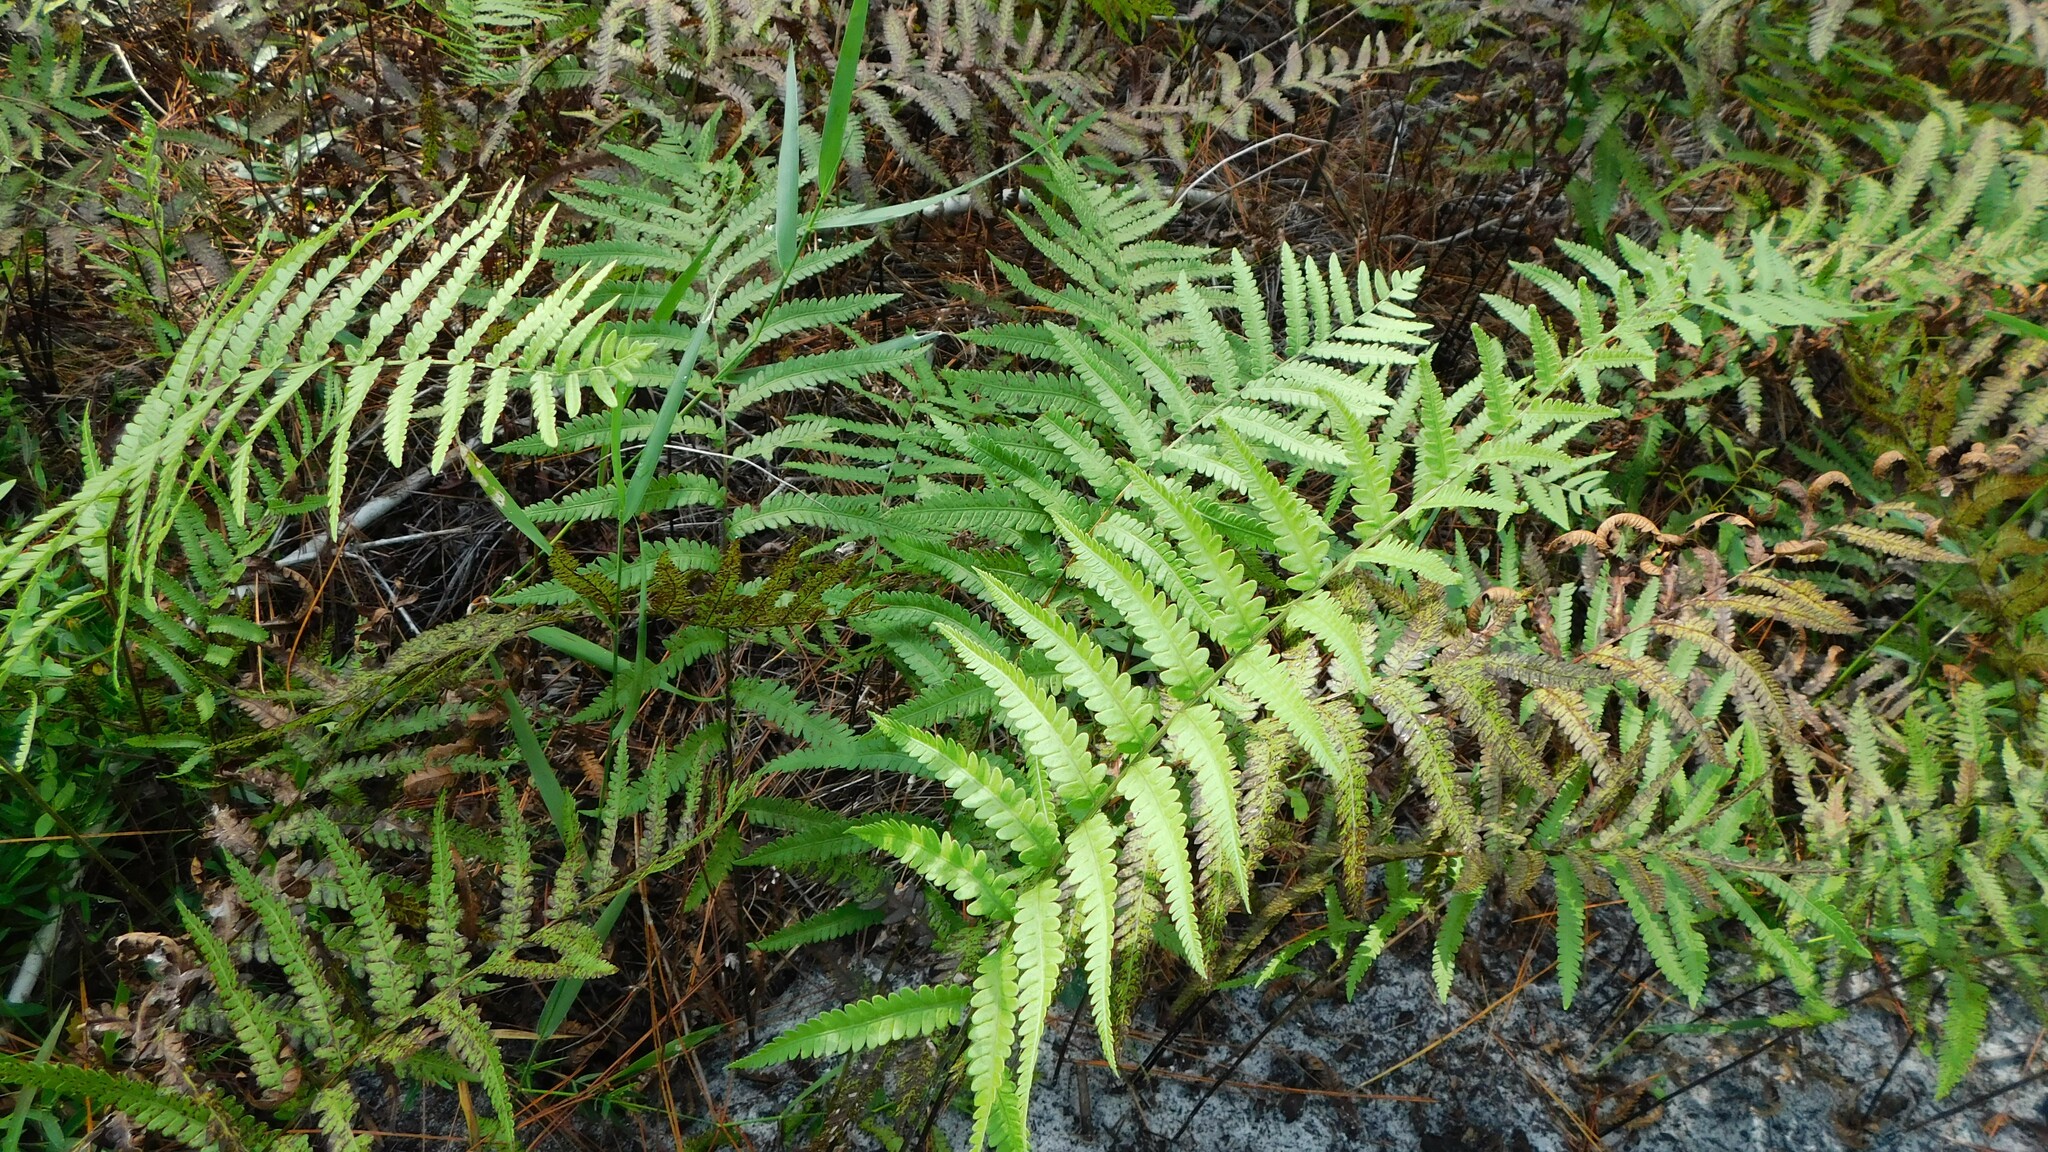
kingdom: Plantae
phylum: Tracheophyta
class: Polypodiopsida
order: Polypodiales
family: Blechnaceae
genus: Anchistea
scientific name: Anchistea virginica
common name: Virginia chain fern
